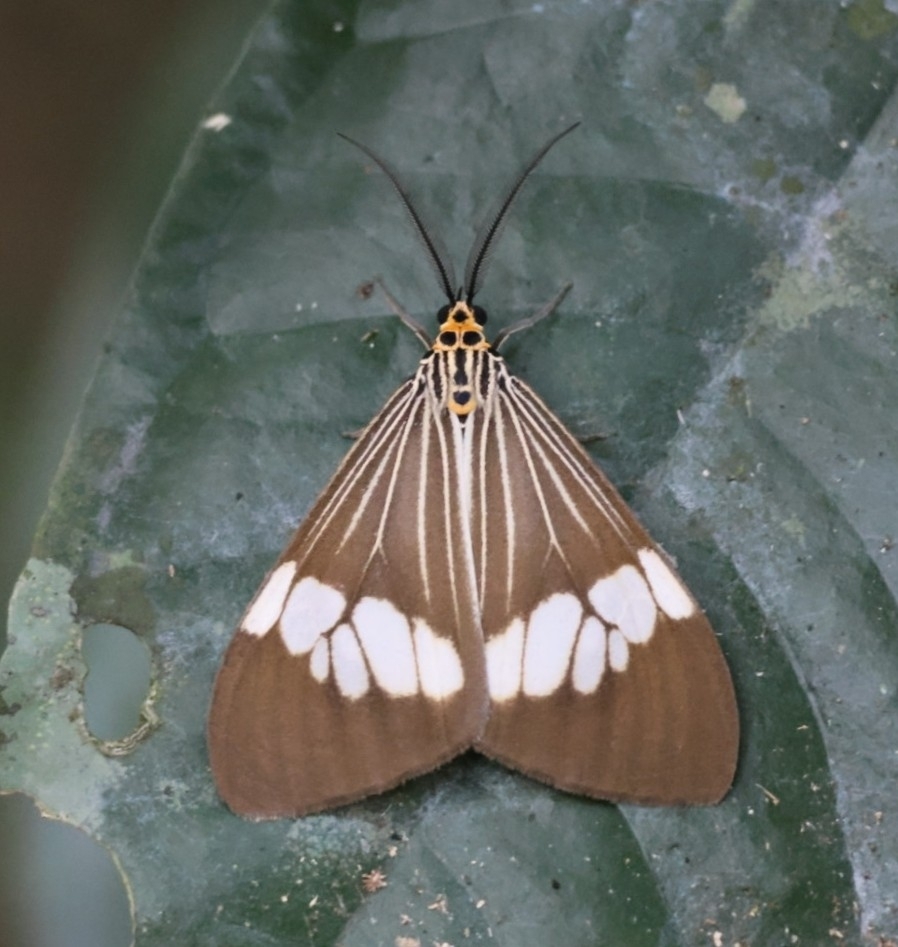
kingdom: Animalia
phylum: Arthropoda
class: Insecta
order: Lepidoptera
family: Erebidae
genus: Nyctemera
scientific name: Nyctemera baulus
